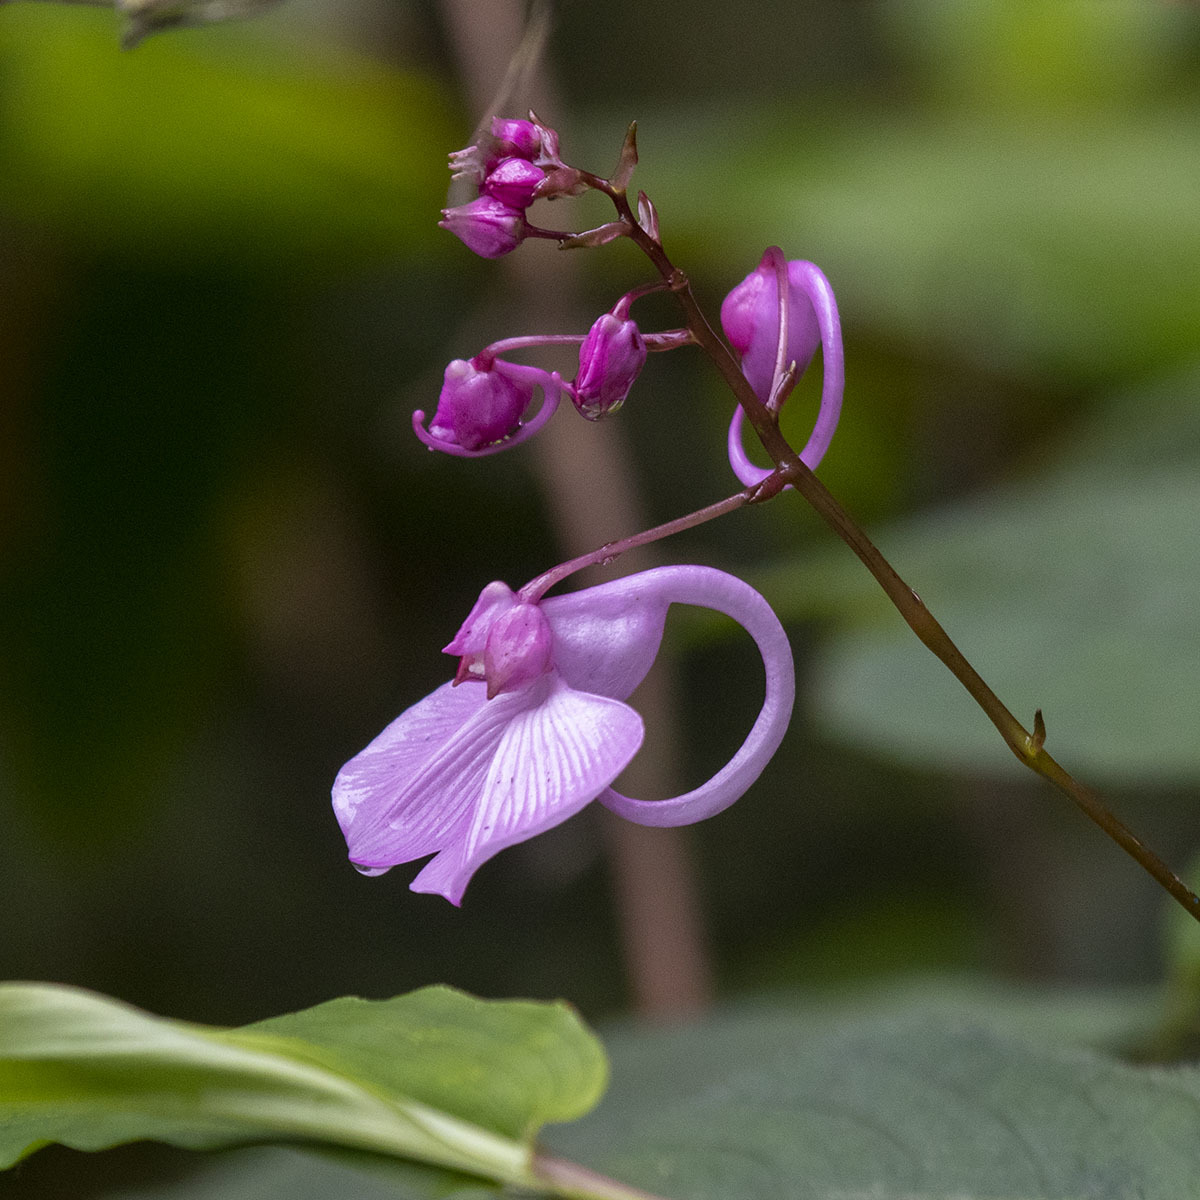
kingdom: Plantae
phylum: Tracheophyta
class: Magnoliopsida
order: Ericales
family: Balsaminaceae
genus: Impatiens
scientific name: Impatiens maculata
